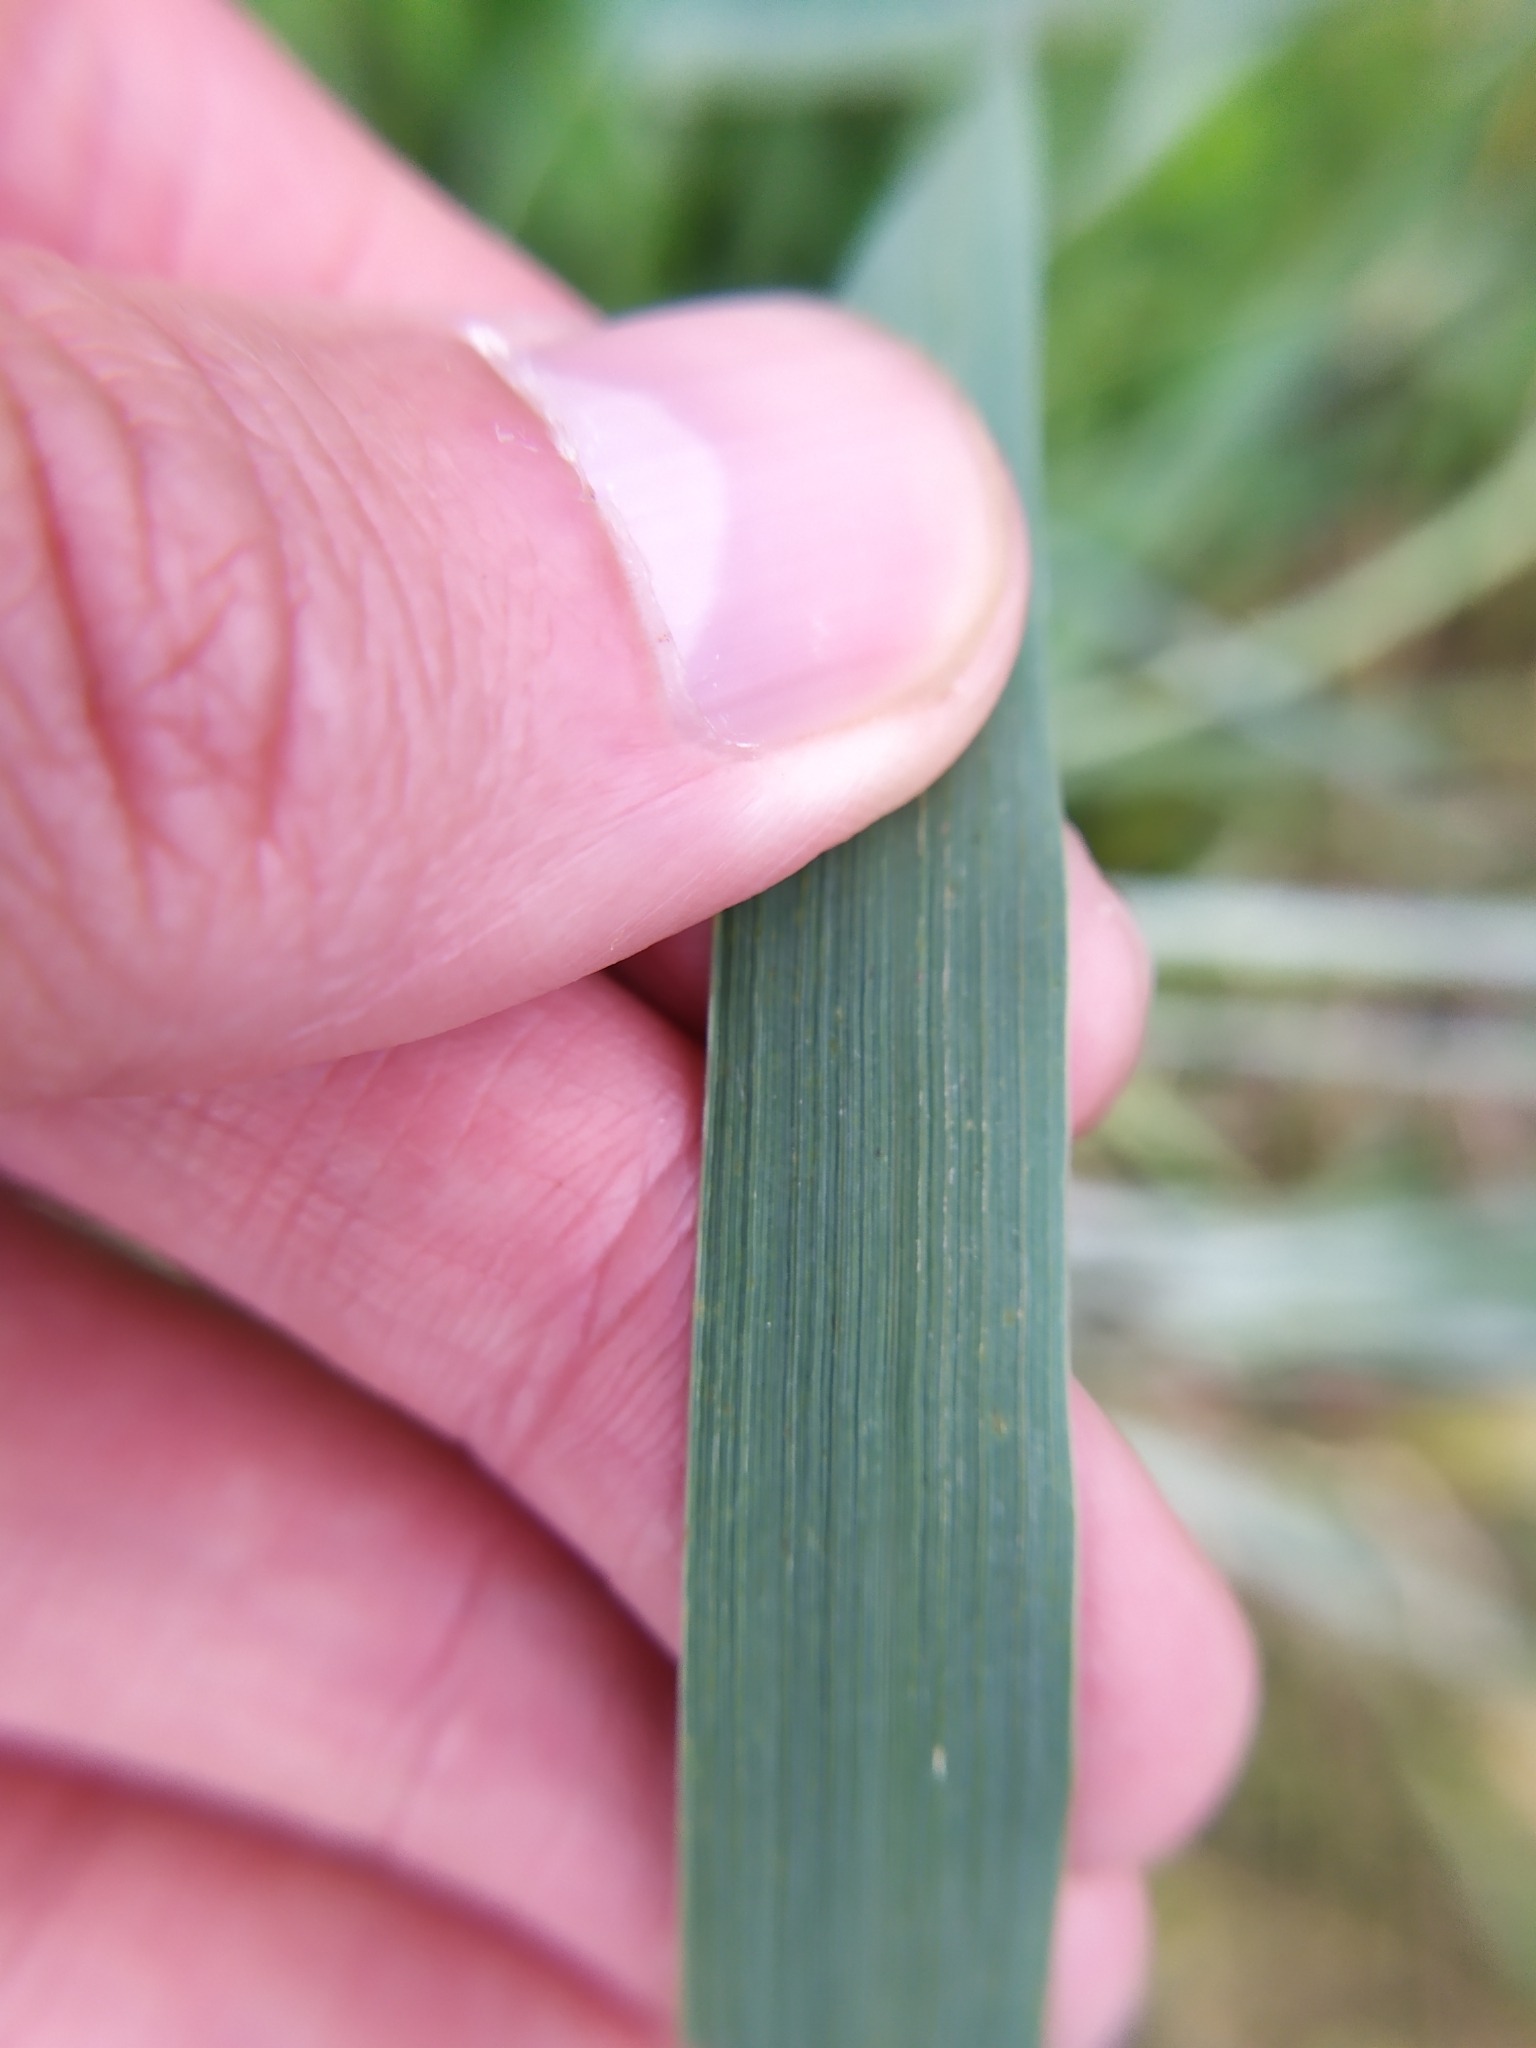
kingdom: Plantae
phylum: Tracheophyta
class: Liliopsida
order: Poales
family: Poaceae
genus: Thinopyrum
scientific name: Thinopyrum intermedium
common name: Intermediate wheatgrass
